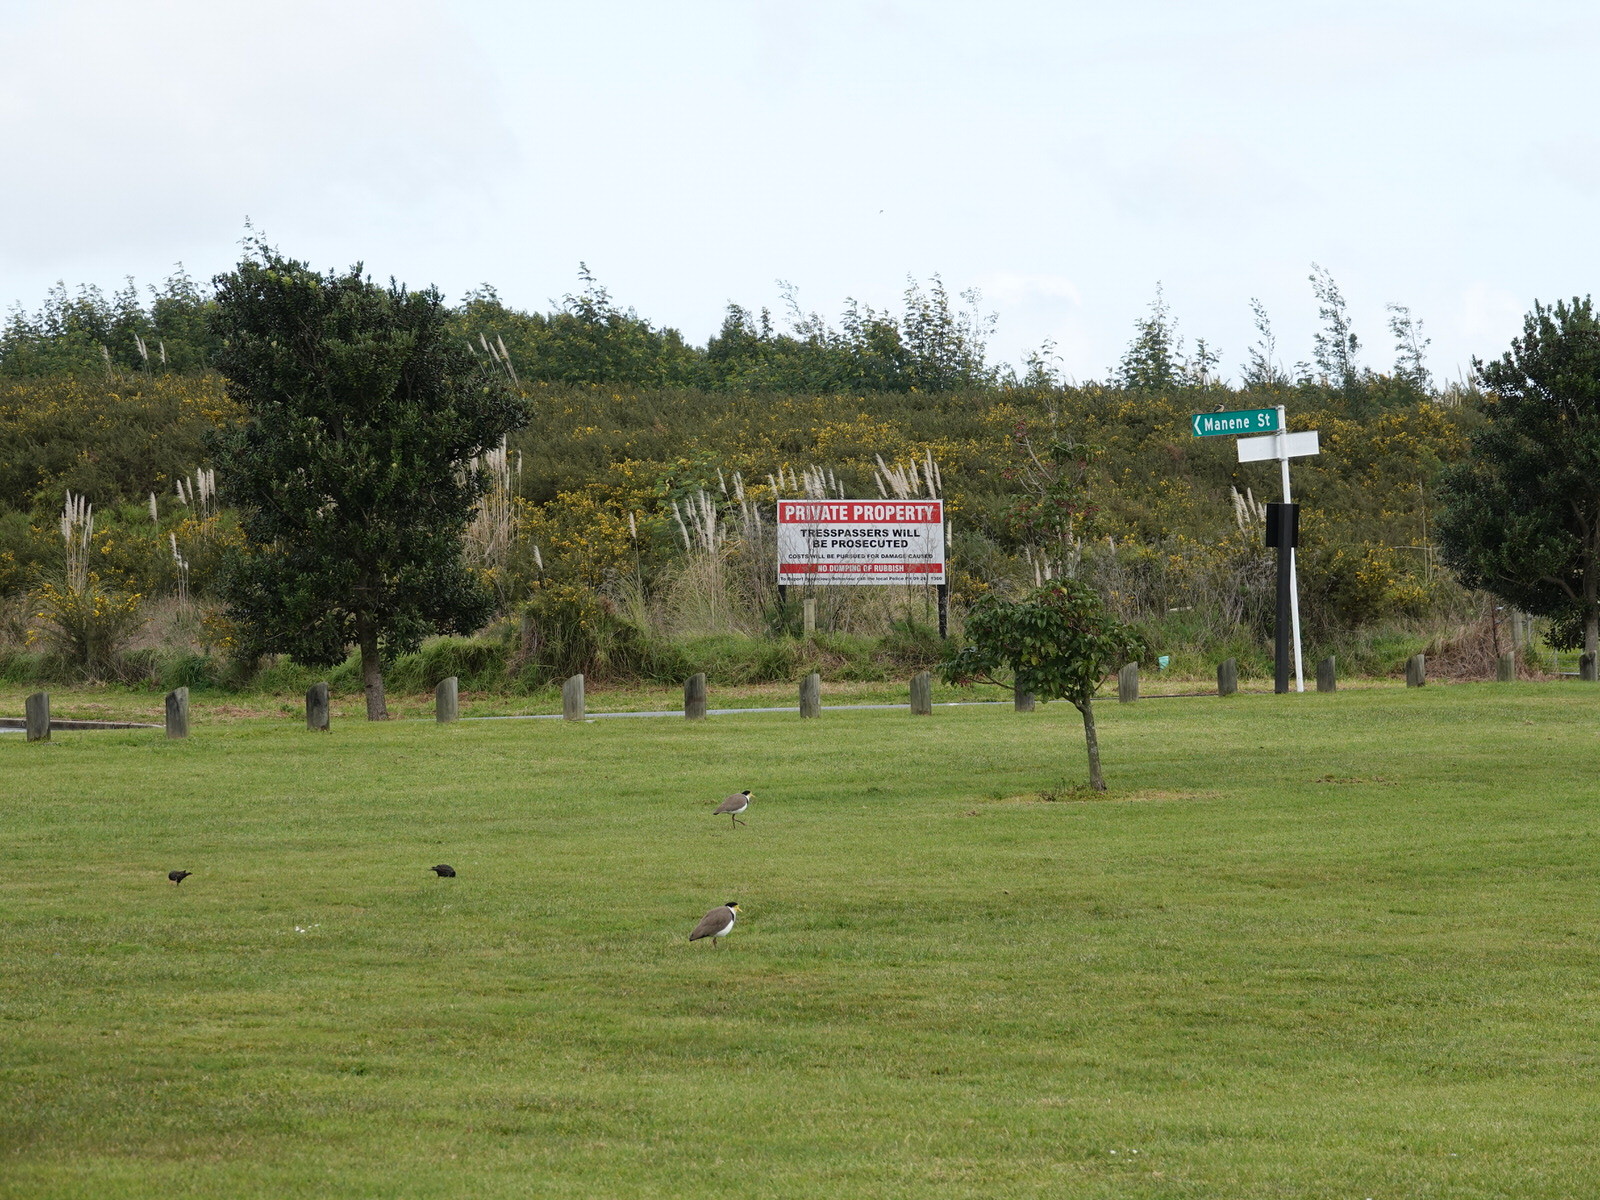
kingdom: Animalia
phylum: Chordata
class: Aves
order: Charadriiformes
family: Charadriidae
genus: Vanellus
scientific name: Vanellus miles
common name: Masked lapwing
